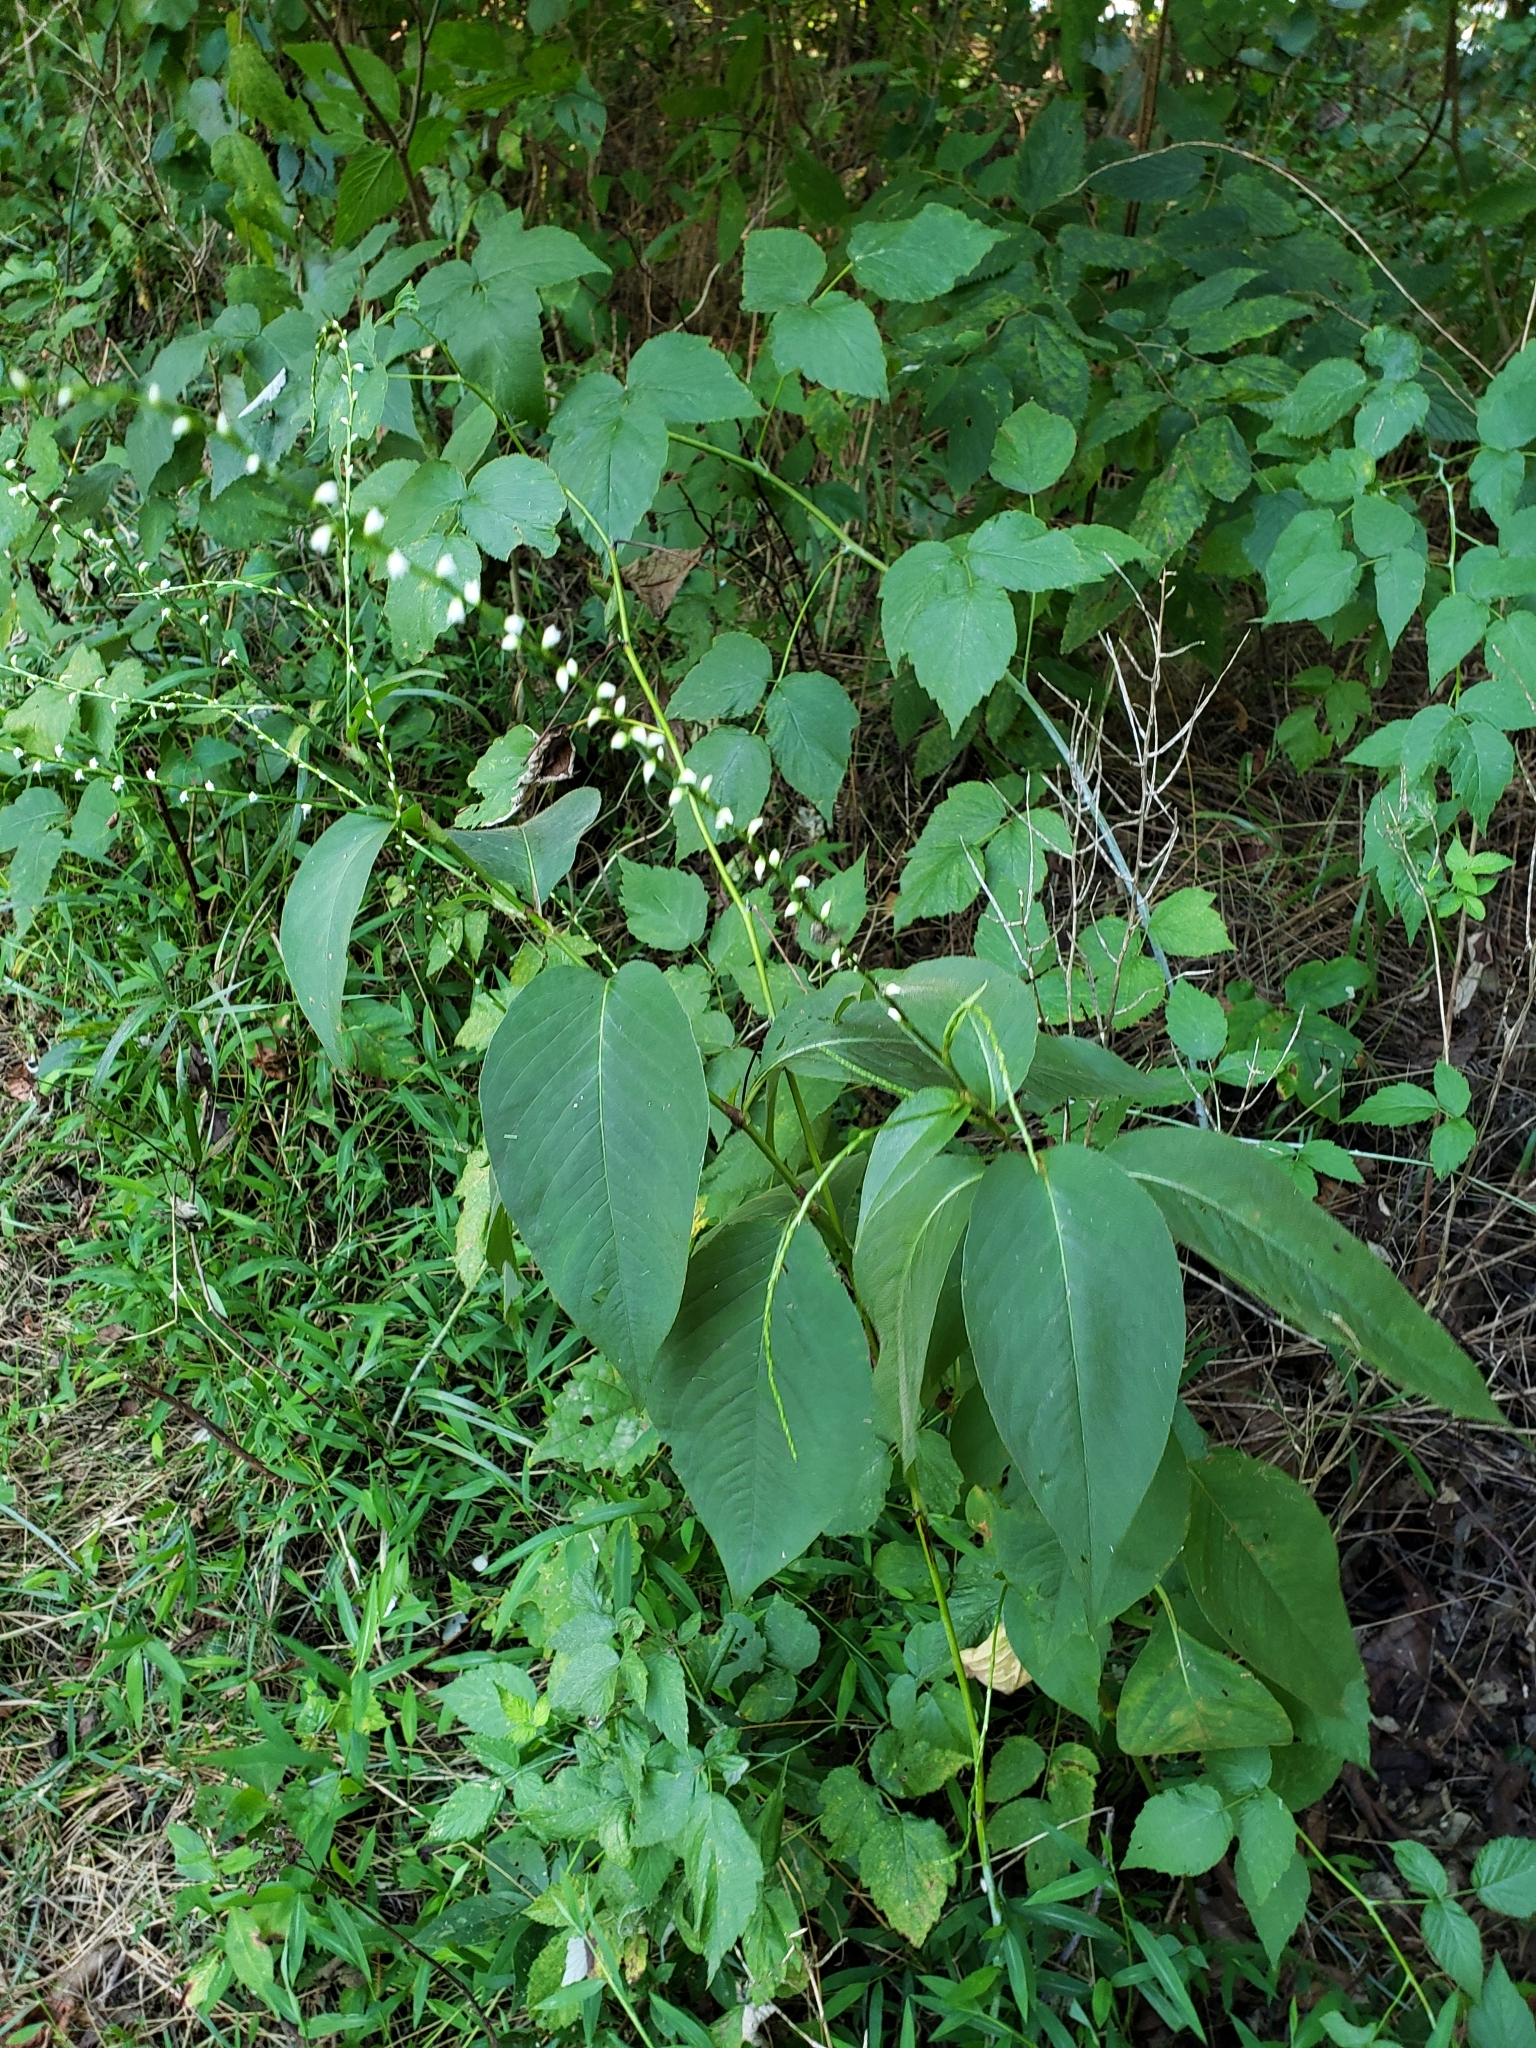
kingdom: Plantae
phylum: Tracheophyta
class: Magnoliopsida
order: Caryophyllales
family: Polygonaceae
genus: Persicaria
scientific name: Persicaria virginiana
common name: Jumpseed
